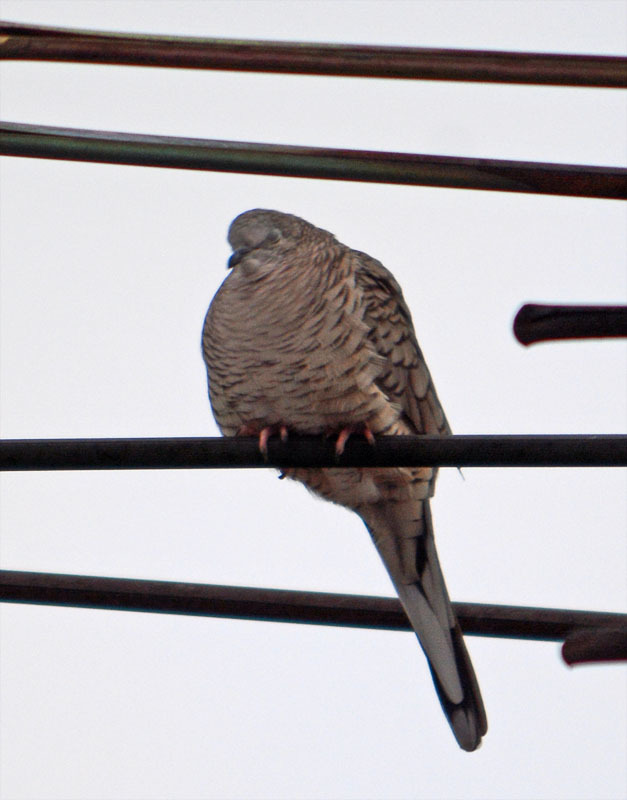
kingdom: Animalia
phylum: Chordata
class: Aves
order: Columbiformes
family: Columbidae
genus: Columbina
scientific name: Columbina inca
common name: Inca dove
